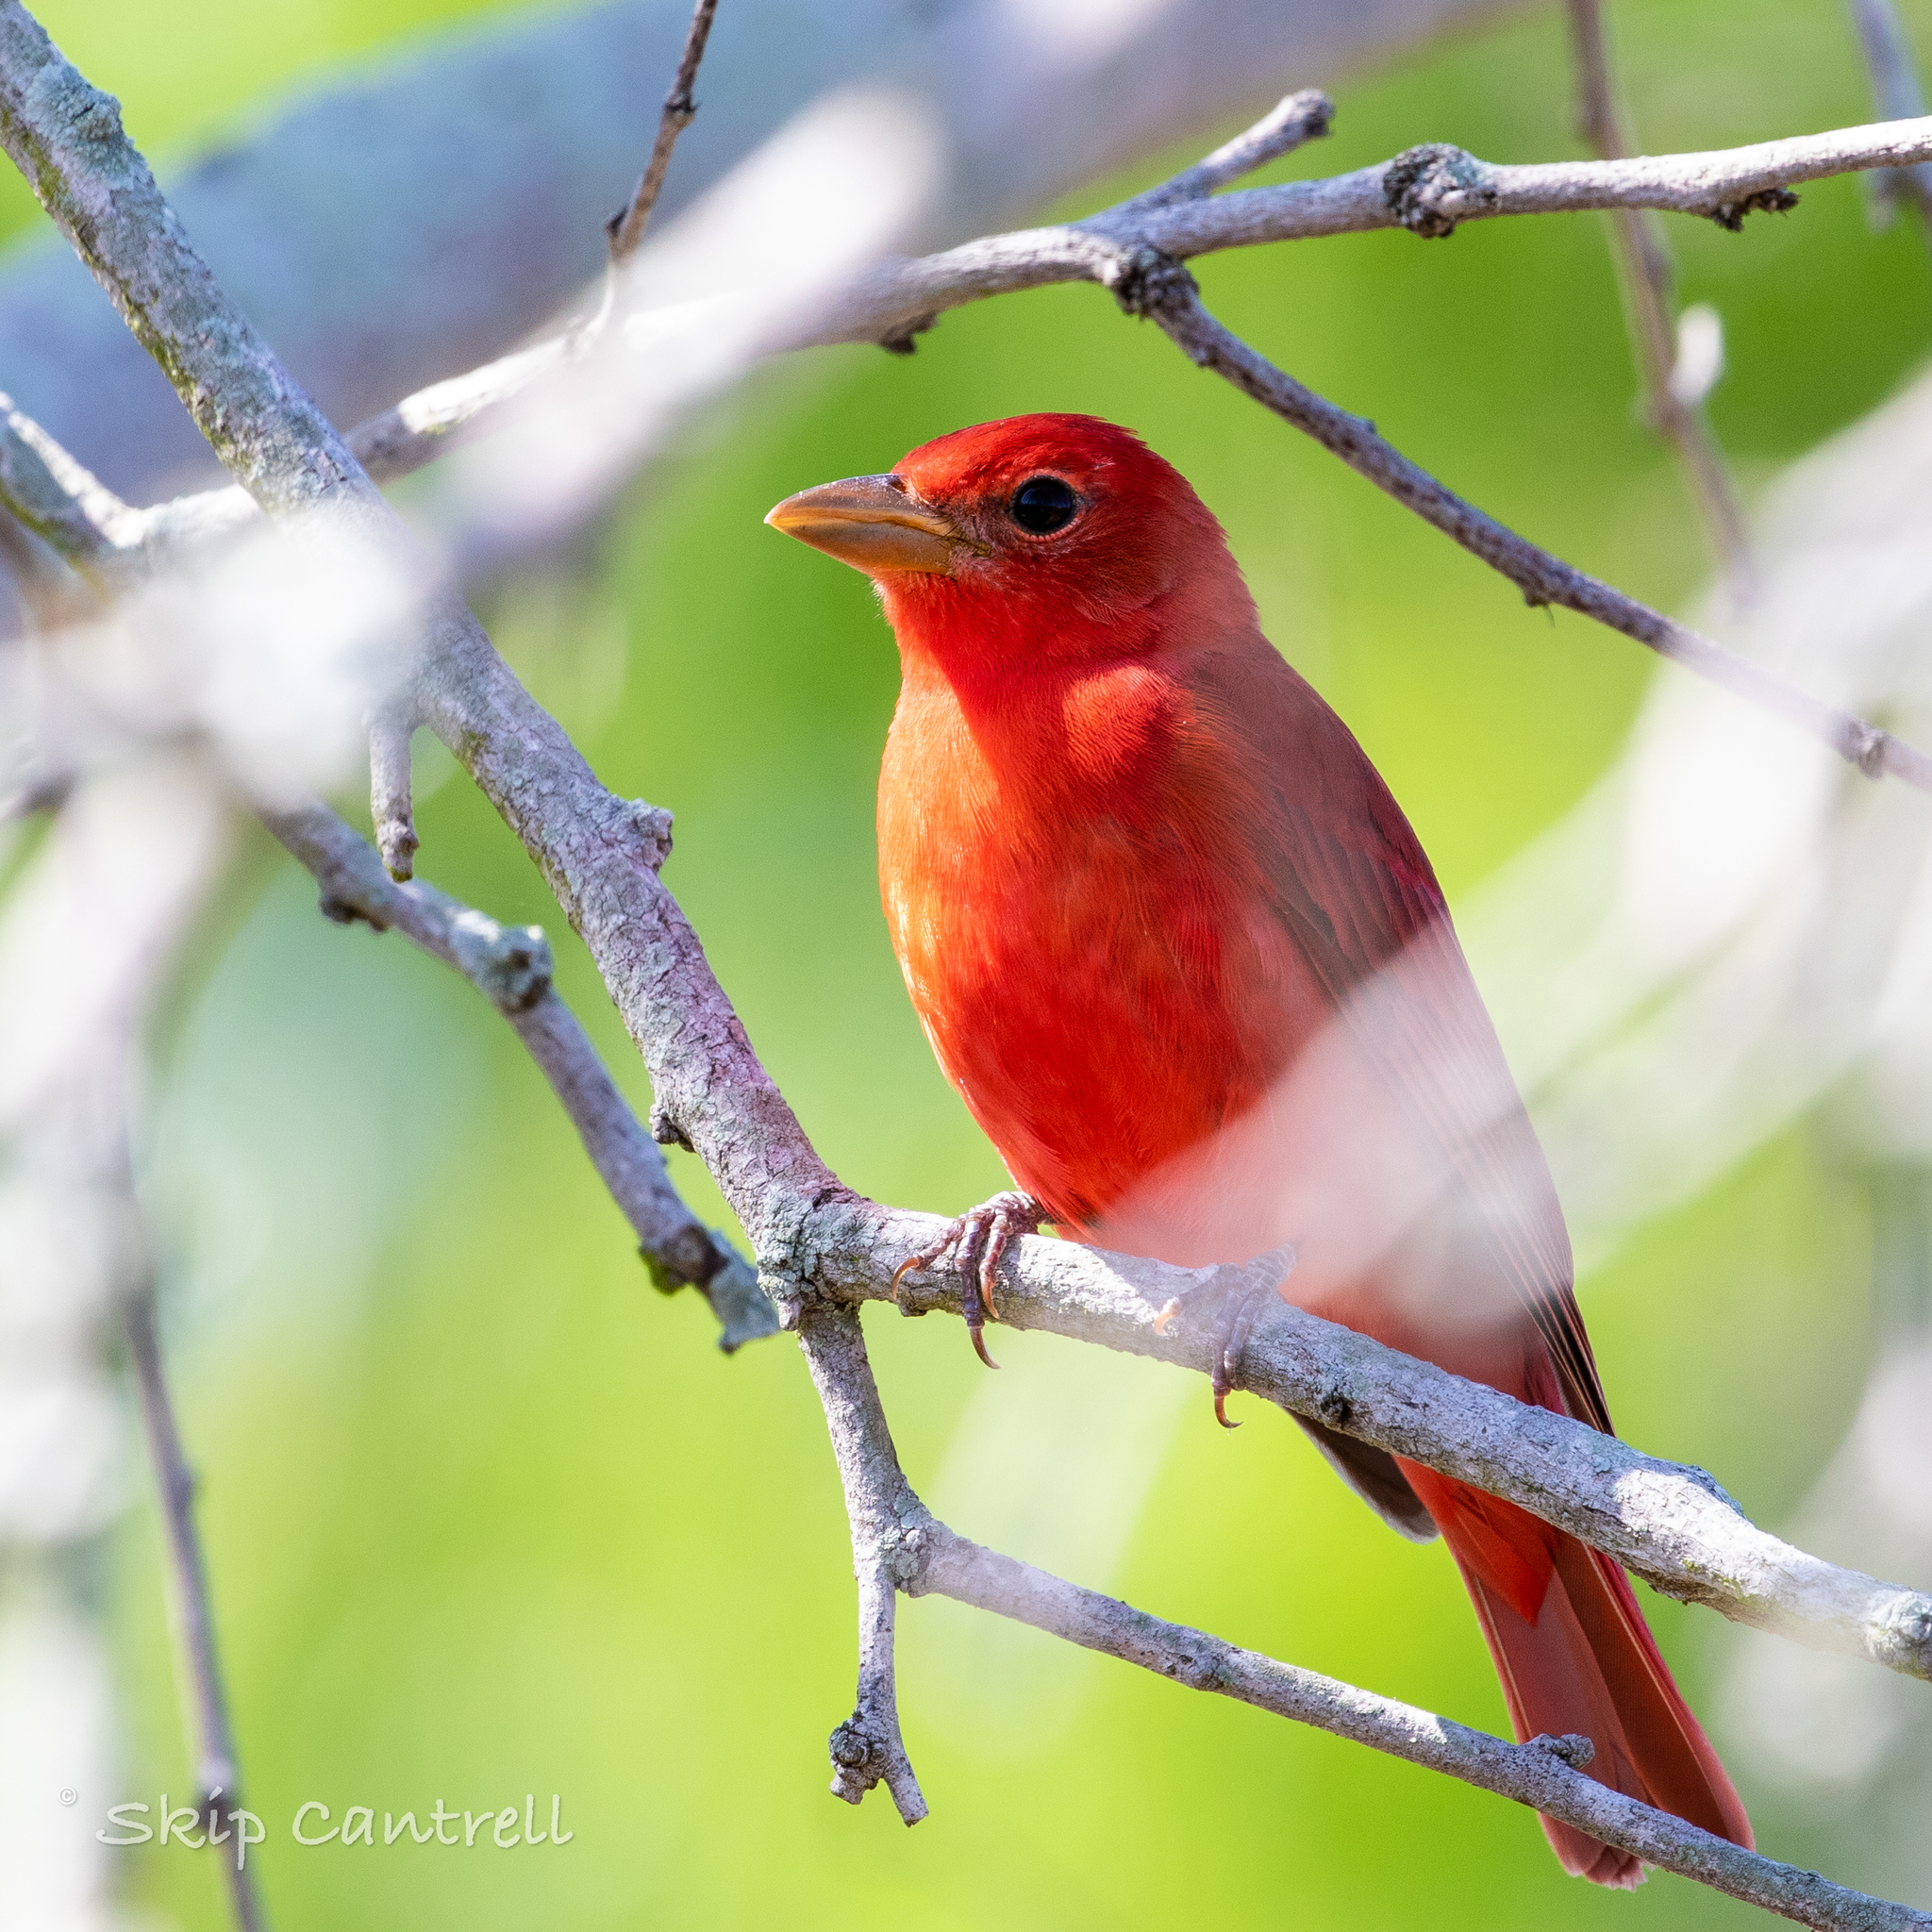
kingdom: Animalia
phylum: Chordata
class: Aves
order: Passeriformes
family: Cardinalidae
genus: Piranga
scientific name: Piranga rubra
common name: Summer tanager
